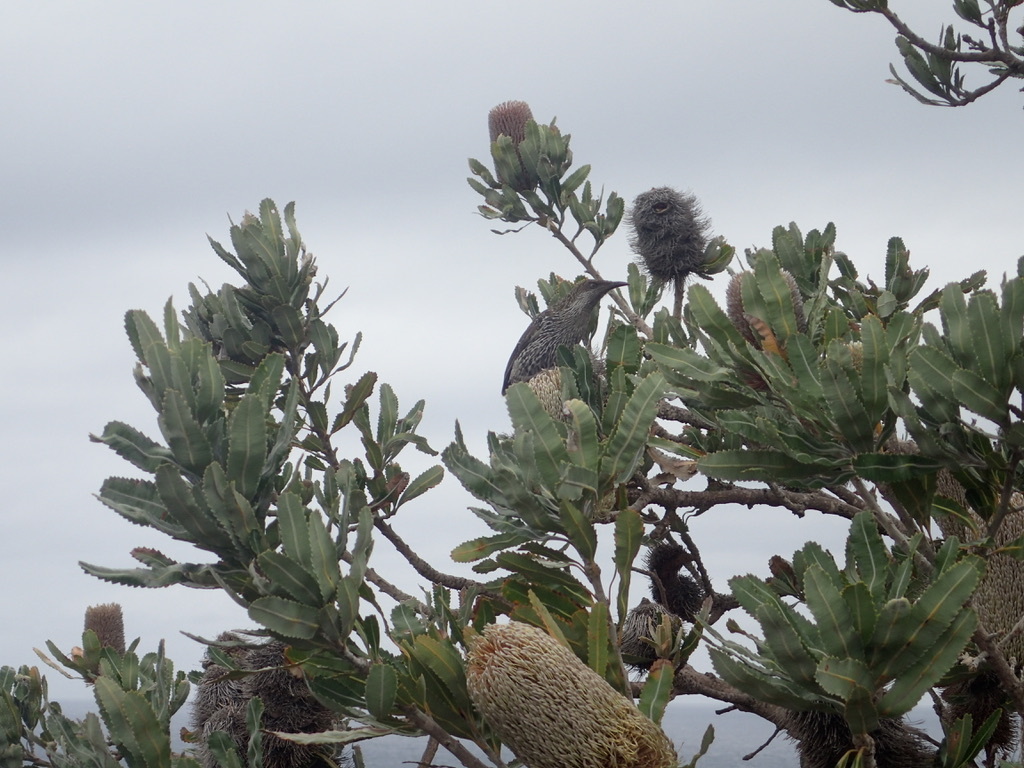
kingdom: Animalia
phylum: Chordata
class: Aves
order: Passeriformes
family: Meliphagidae
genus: Anthochaera
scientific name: Anthochaera chrysoptera
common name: Little wattlebird
